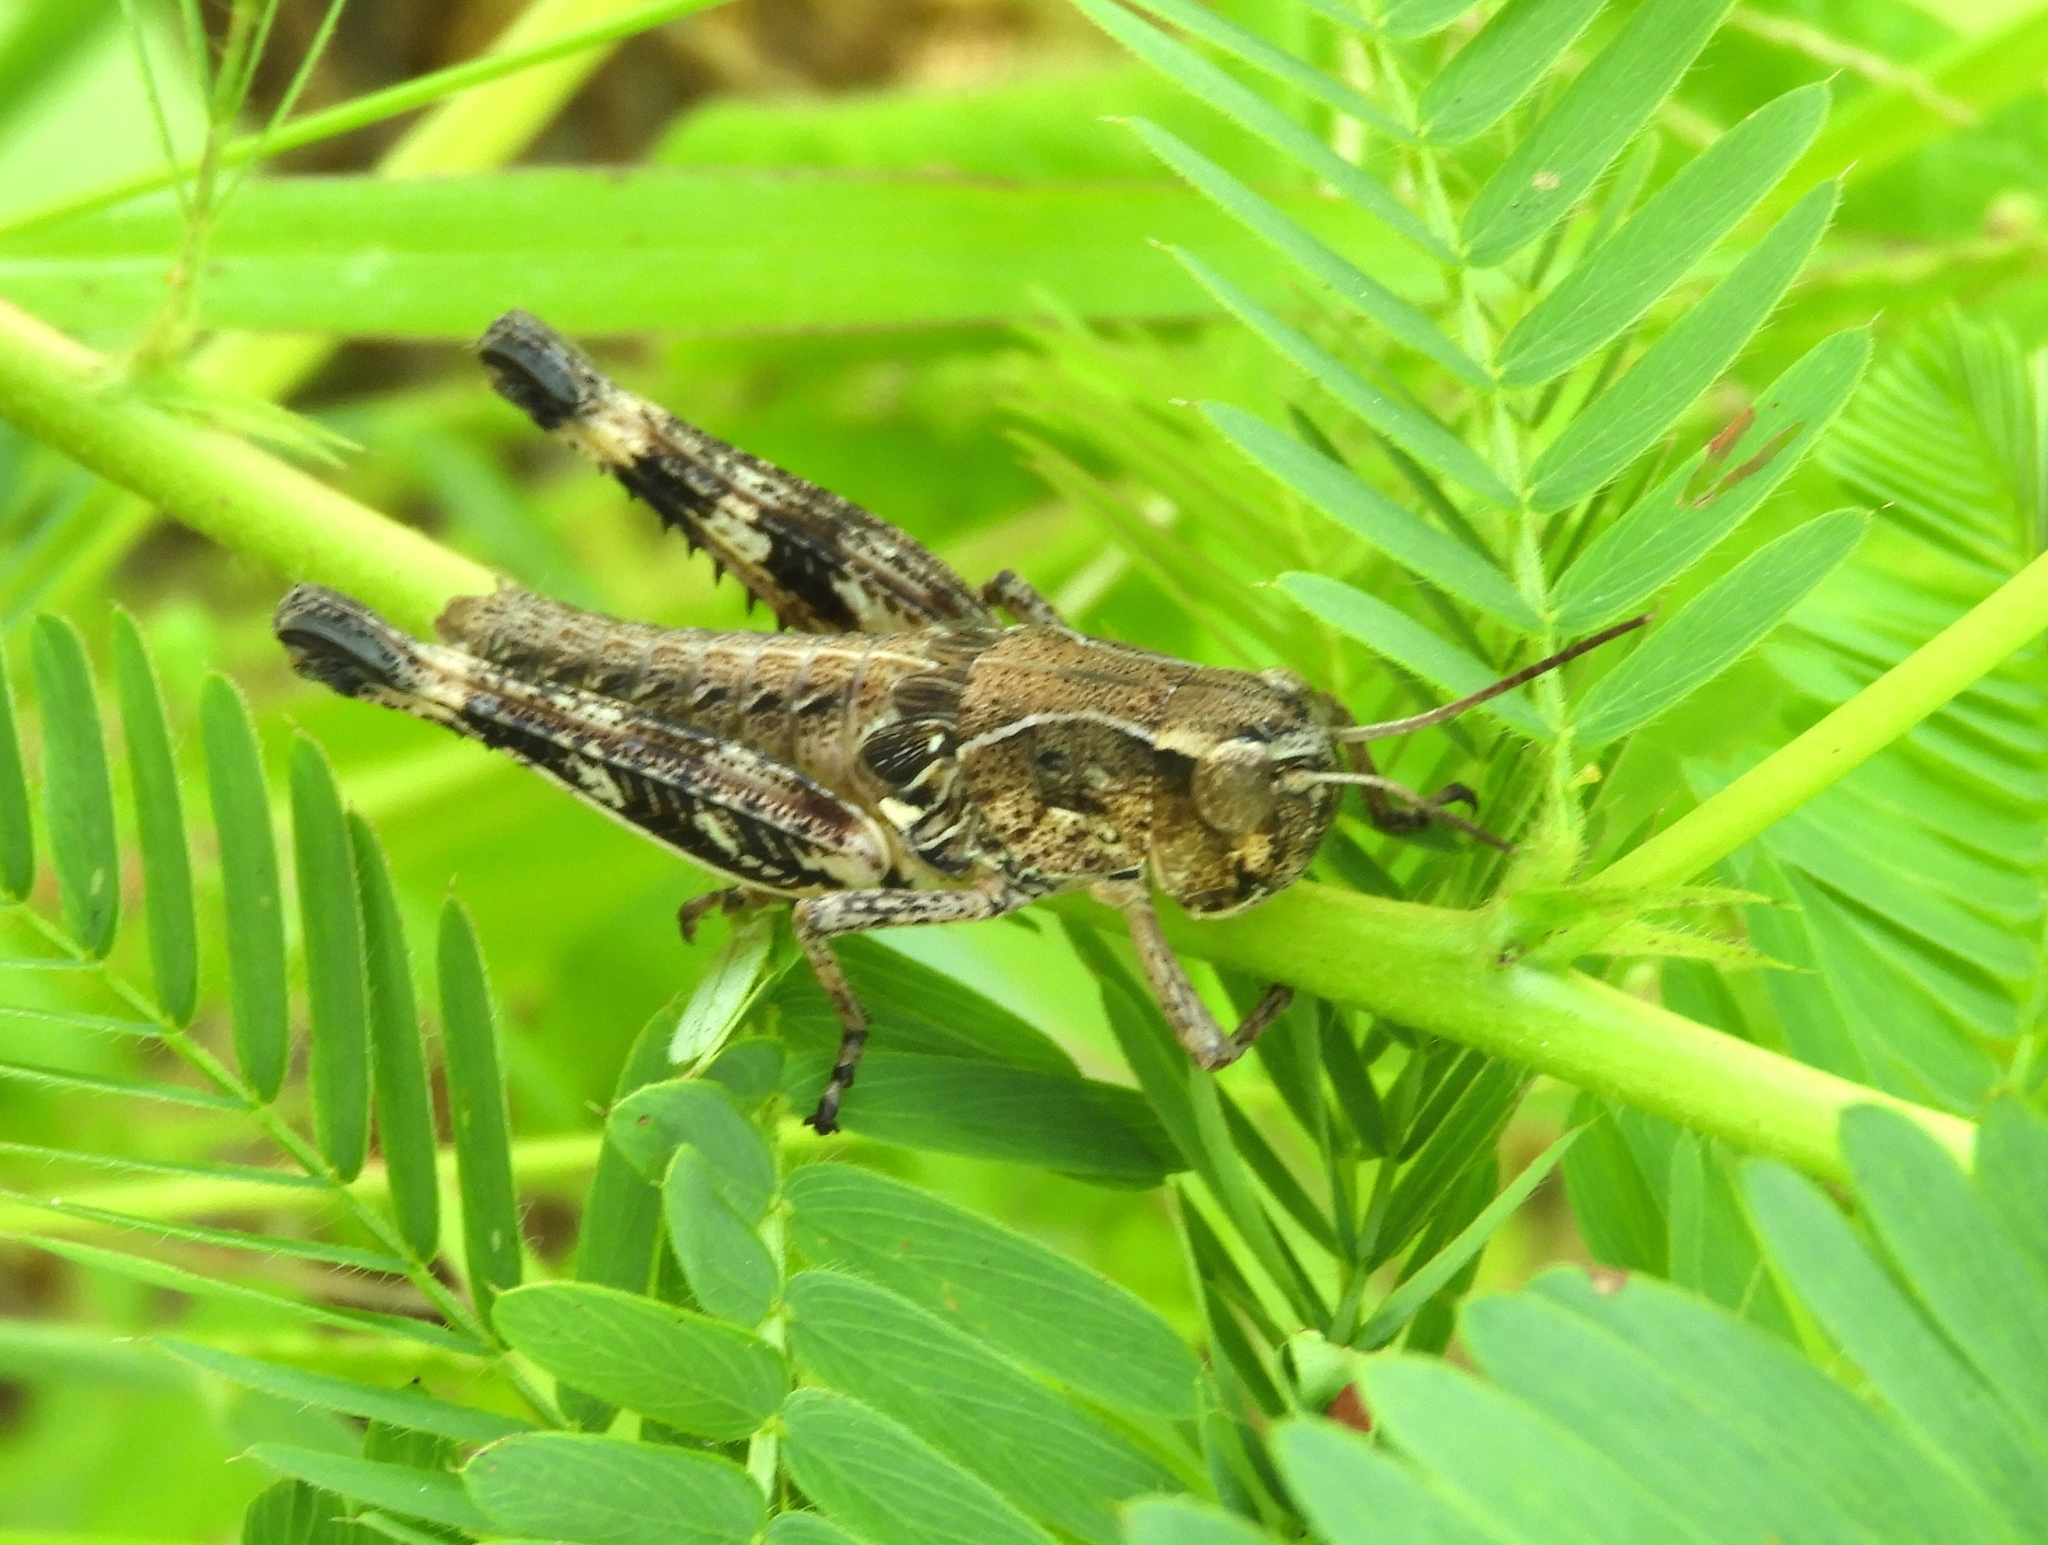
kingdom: Animalia
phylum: Arthropoda
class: Insecta
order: Orthoptera
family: Acrididae
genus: Boopedon
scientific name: Boopedon flaviventris
